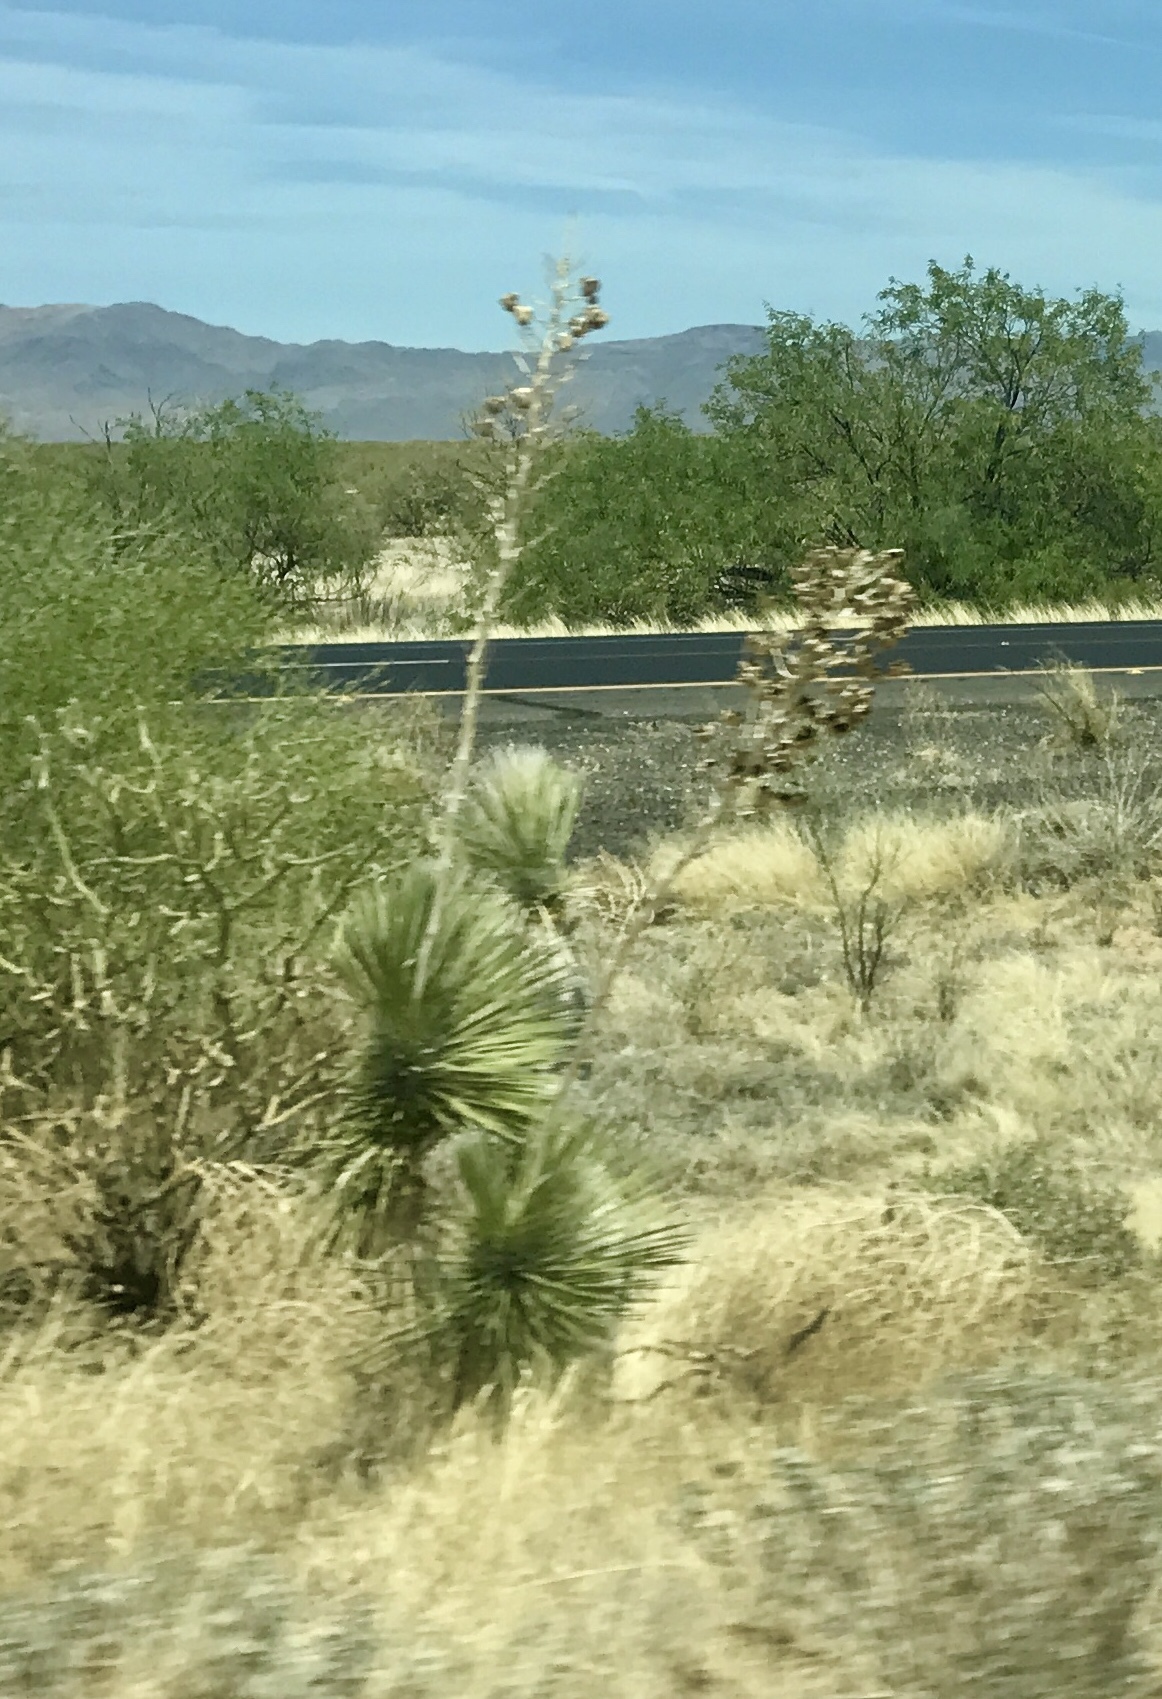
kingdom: Plantae
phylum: Tracheophyta
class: Liliopsida
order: Asparagales
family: Asparagaceae
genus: Yucca
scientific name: Yucca elata
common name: Palmella
